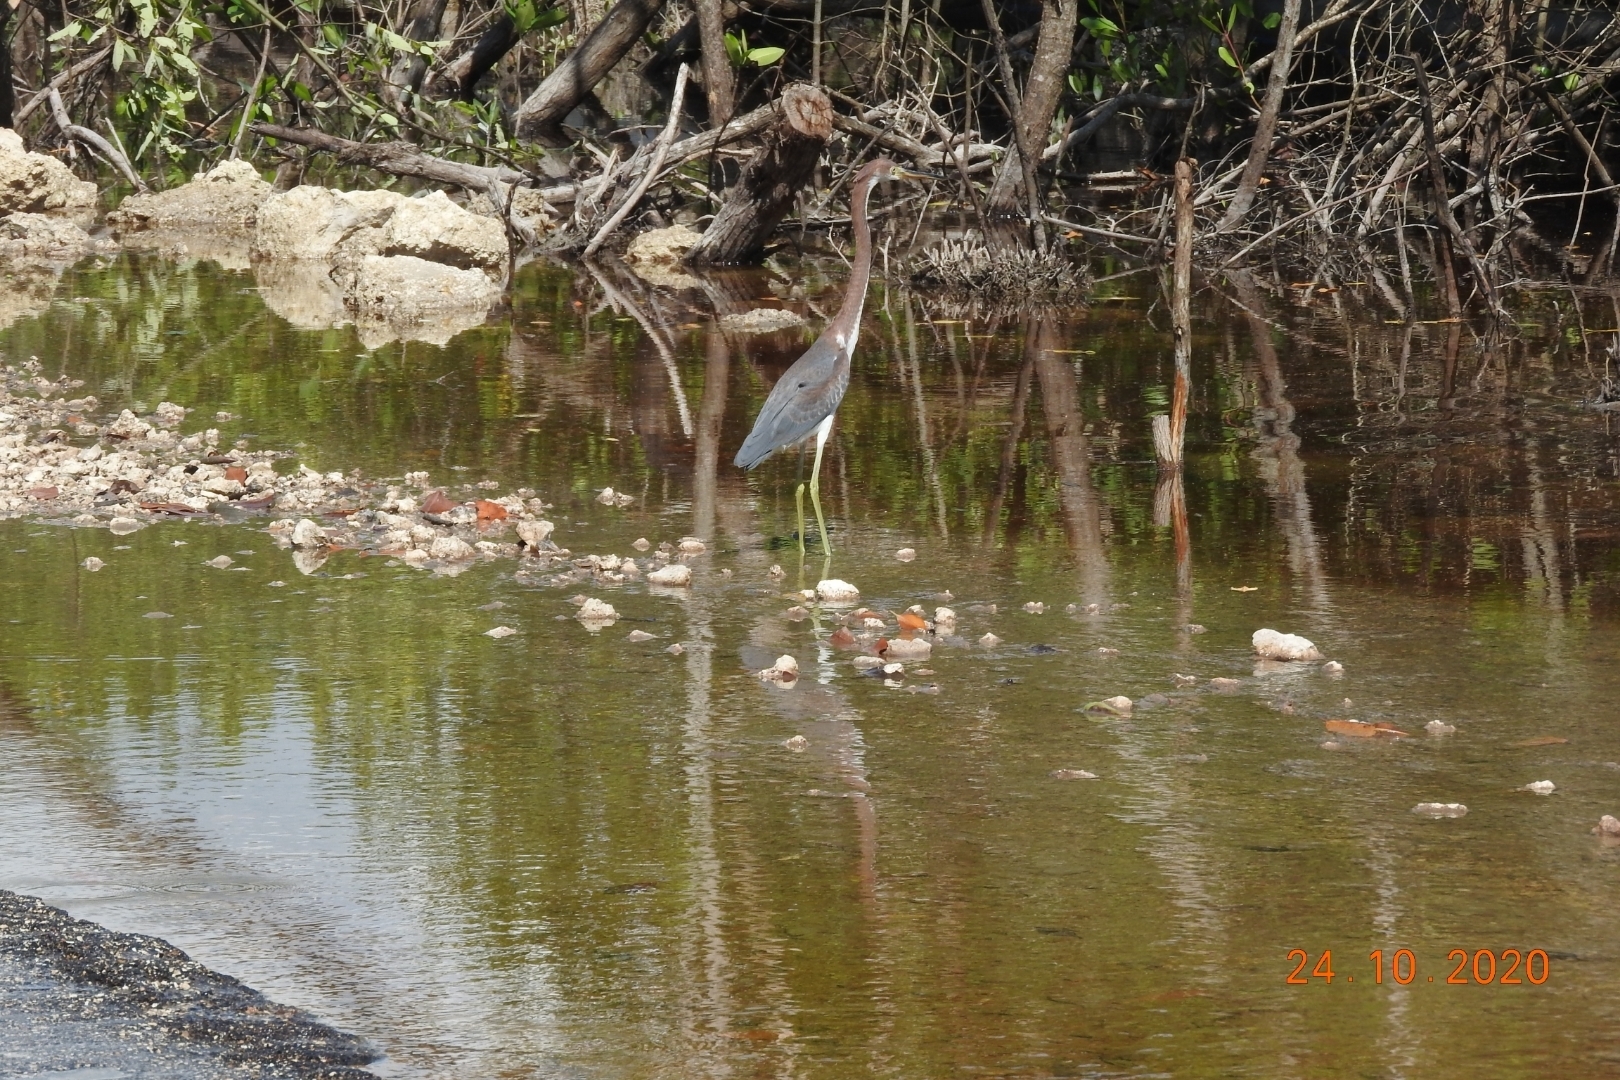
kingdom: Animalia
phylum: Chordata
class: Aves
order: Pelecaniformes
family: Ardeidae
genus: Egretta
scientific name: Egretta tricolor
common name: Tricolored heron
